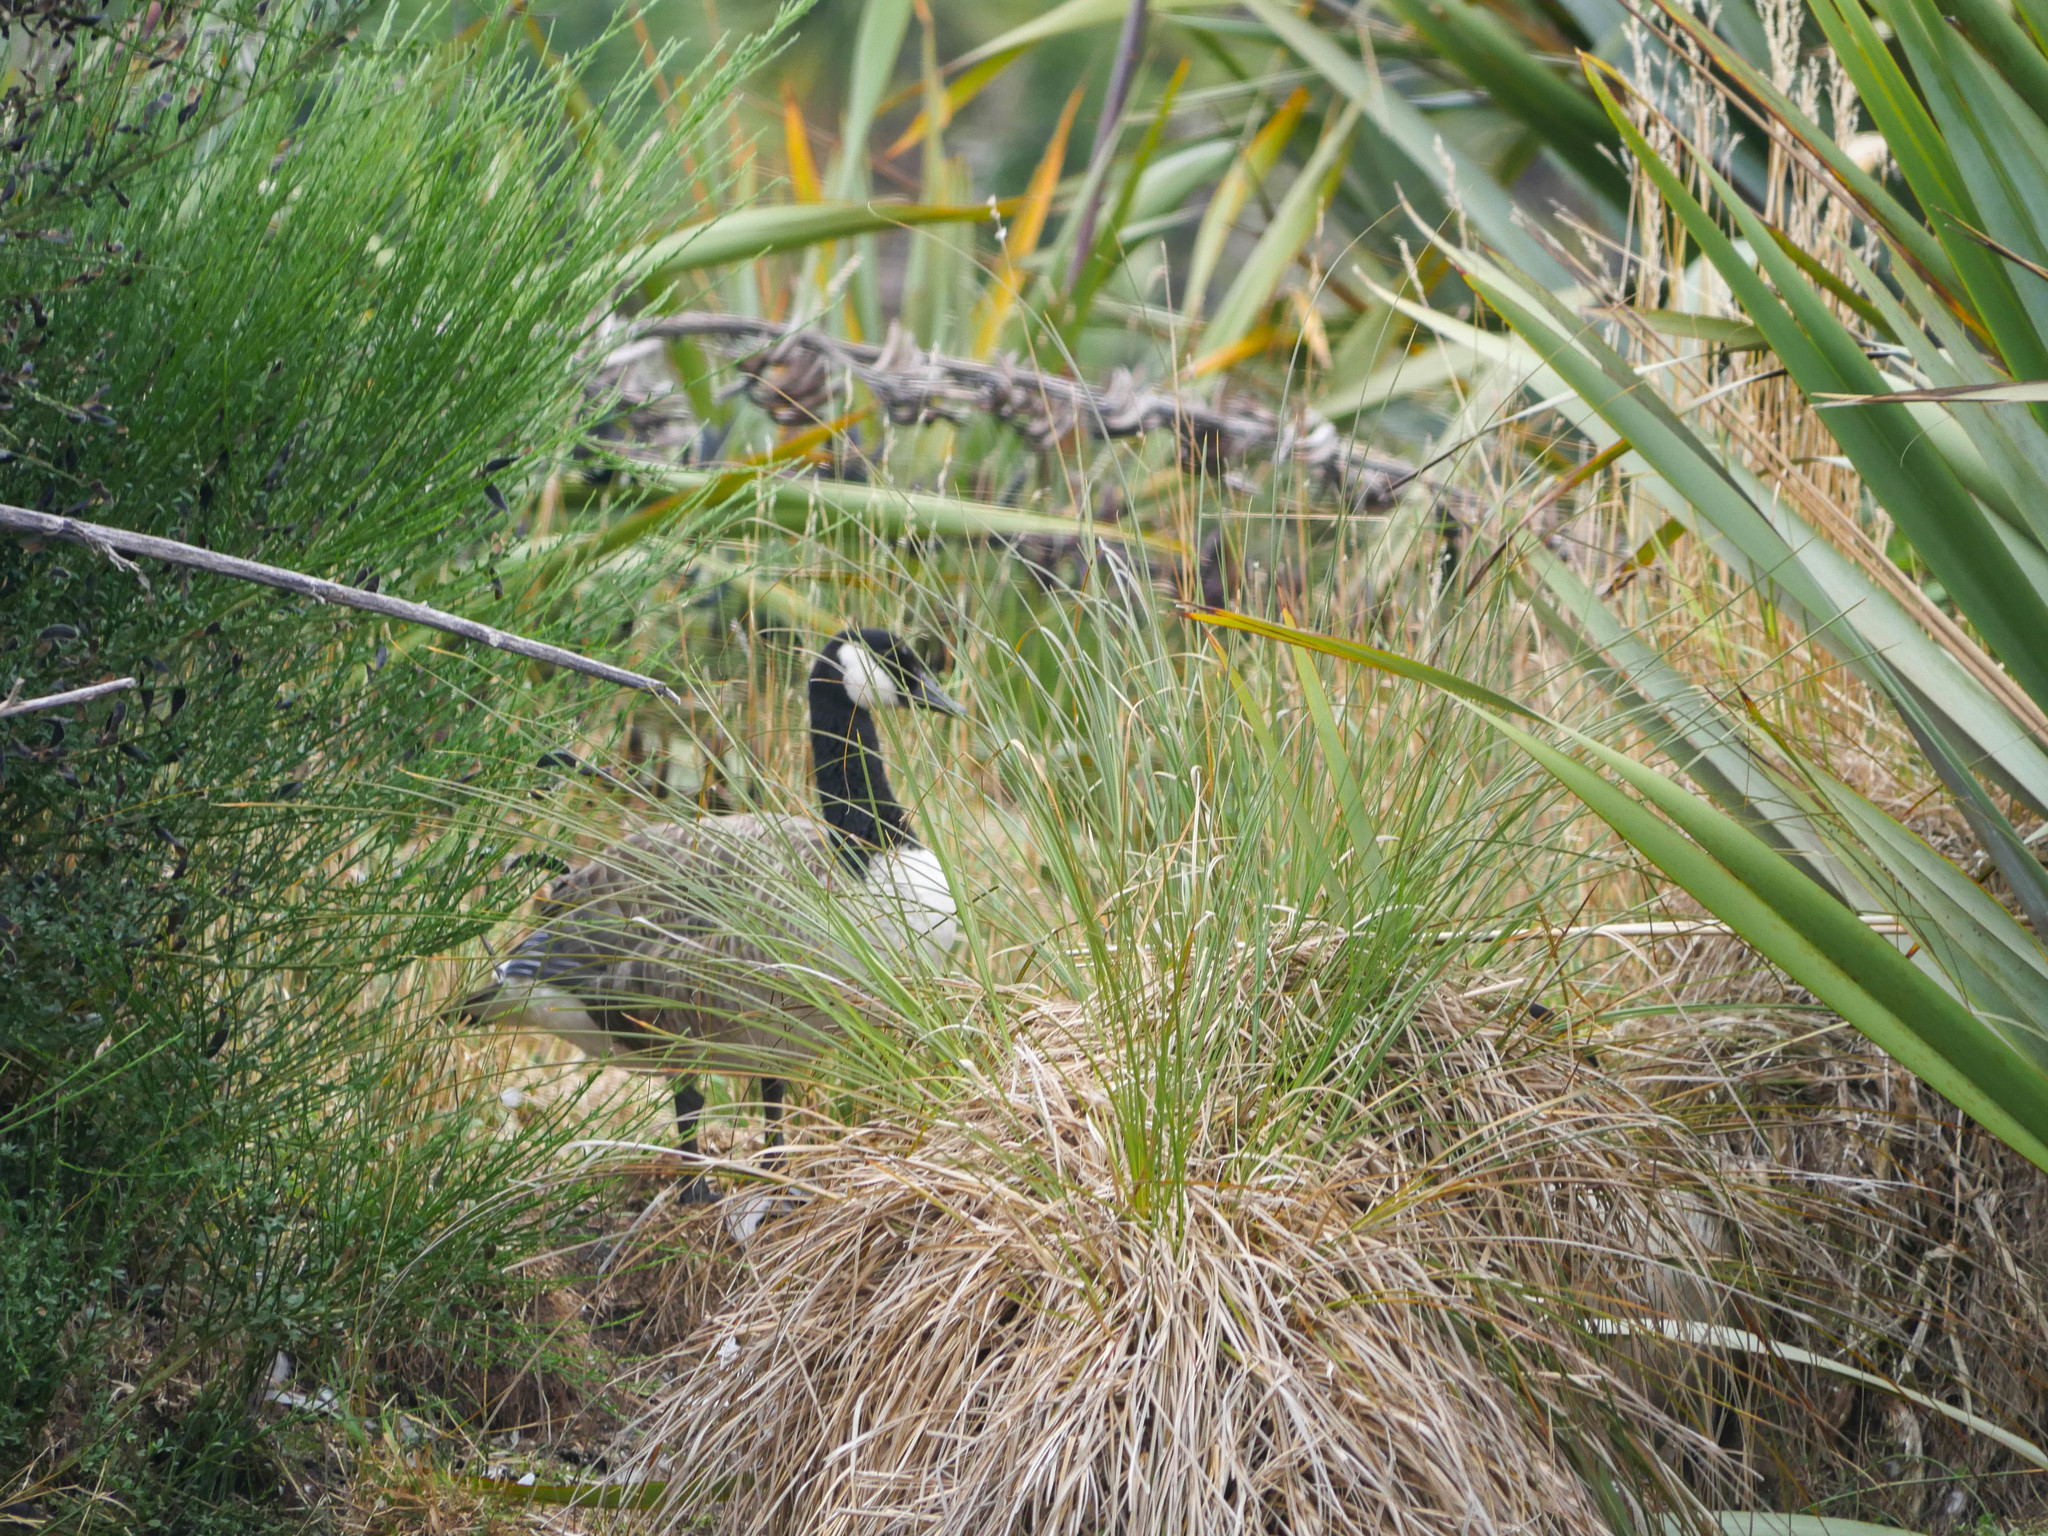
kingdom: Animalia
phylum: Chordata
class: Aves
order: Anseriformes
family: Anatidae
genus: Branta
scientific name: Branta canadensis
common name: Canada goose
